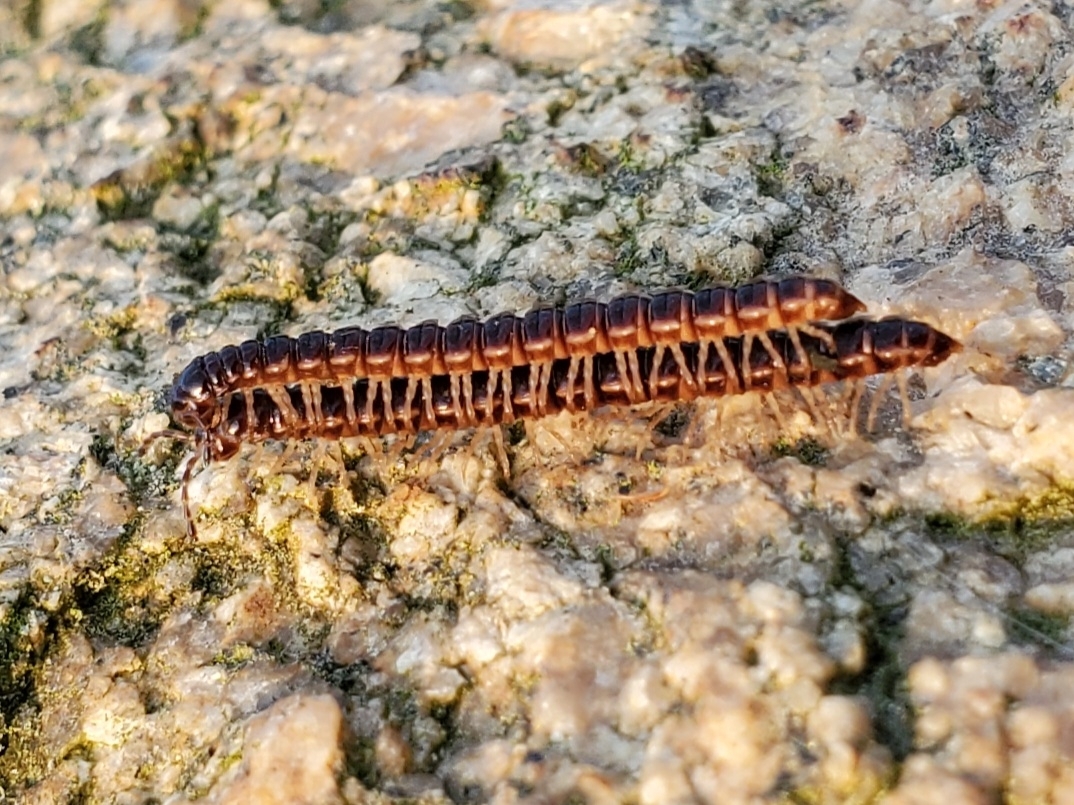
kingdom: Animalia
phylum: Arthropoda
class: Diplopoda
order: Polydesmida
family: Paradoxosomatidae
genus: Oxidus
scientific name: Oxidus gracilis
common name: Greenhouse millipede
